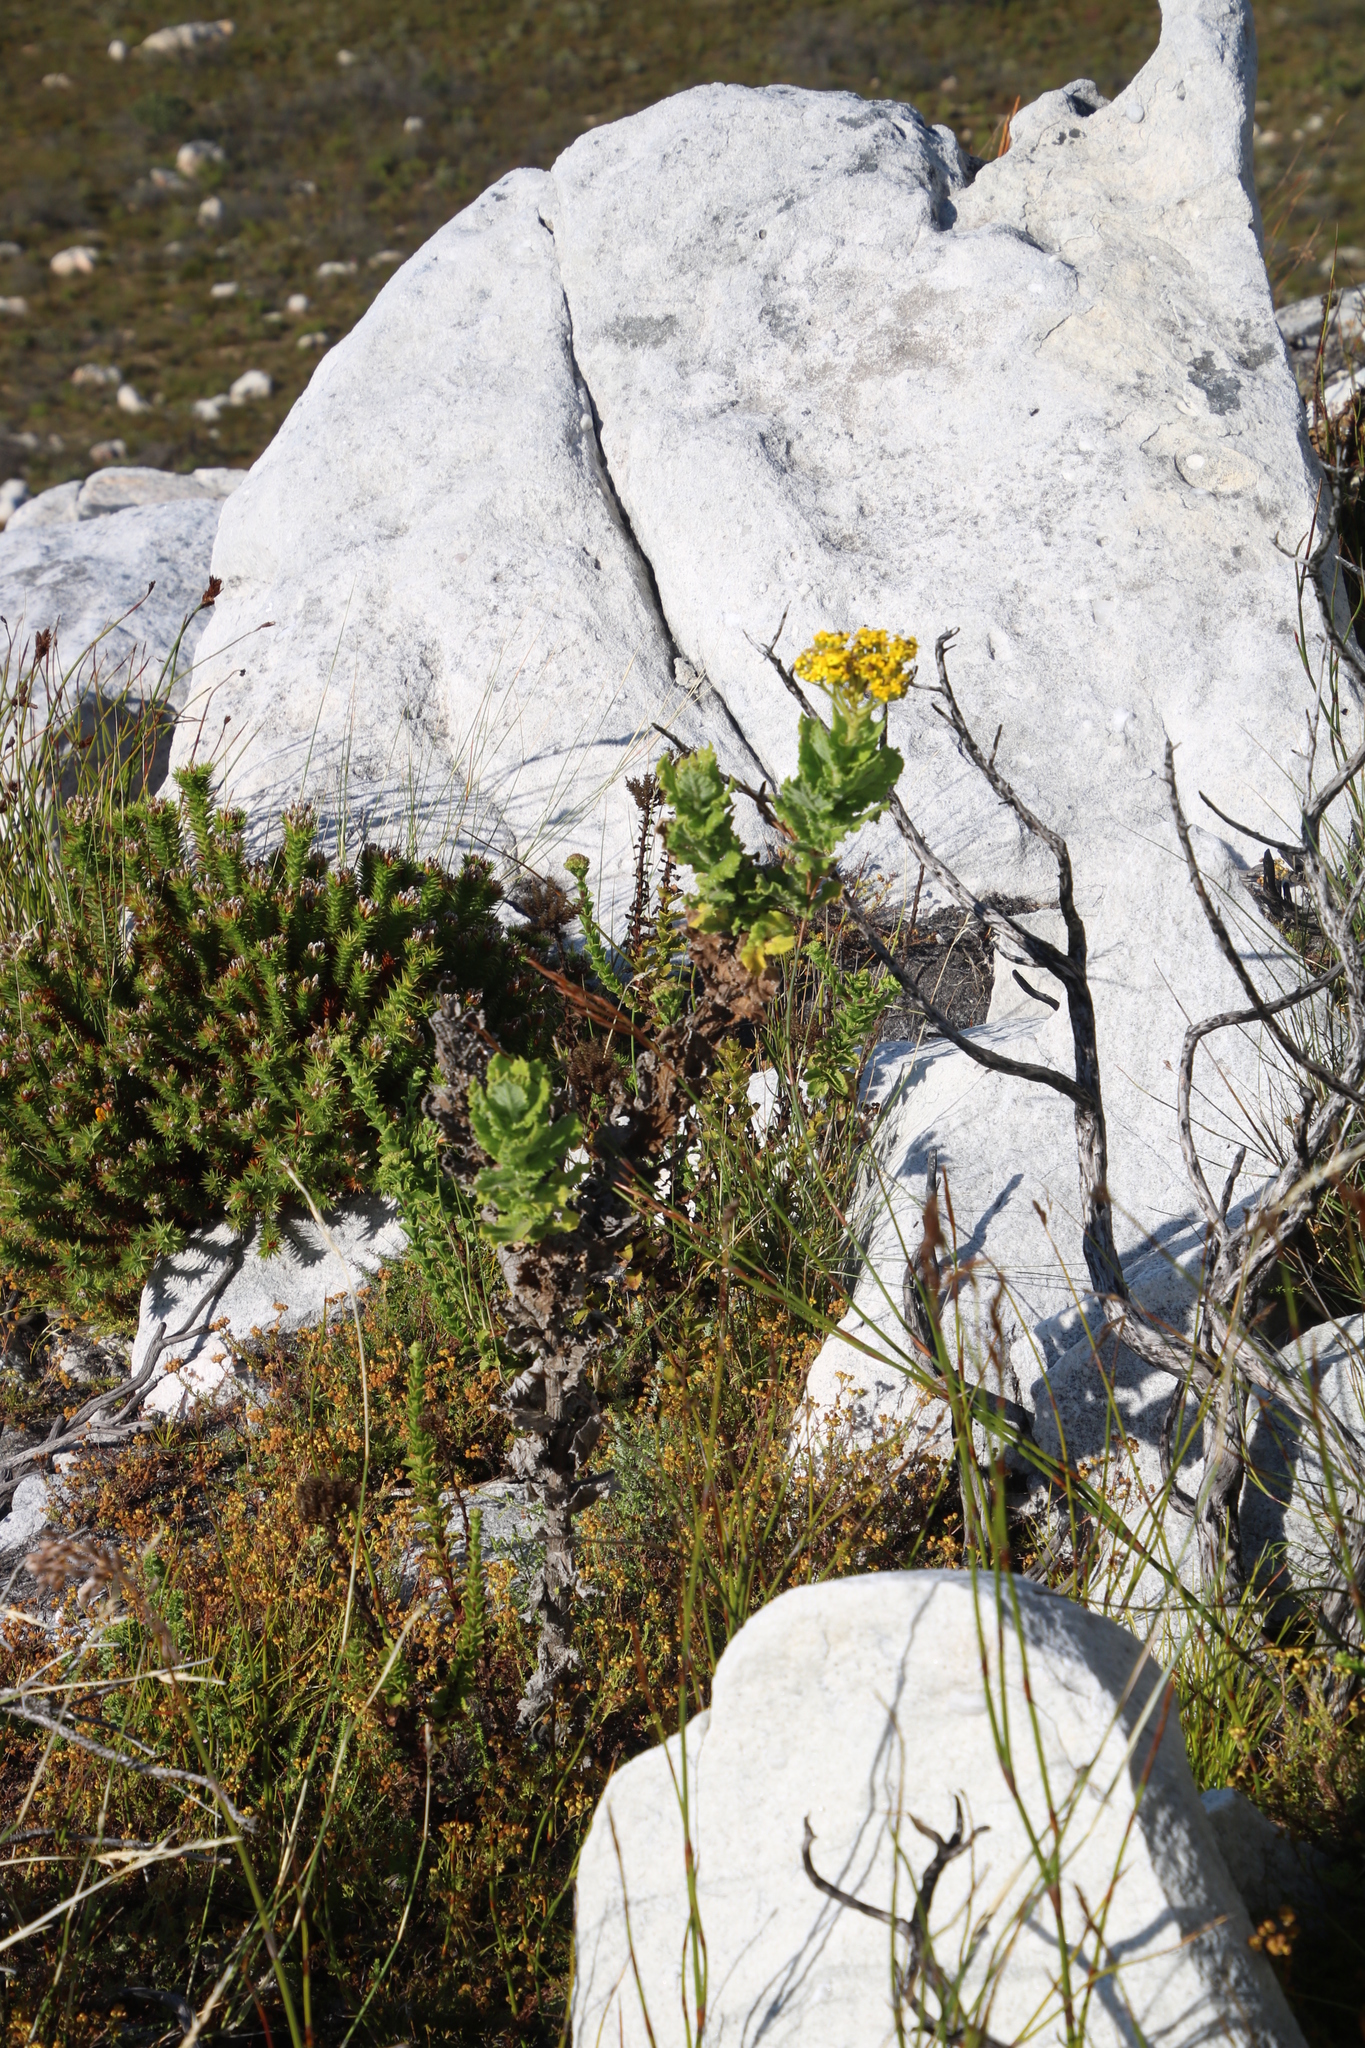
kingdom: Plantae
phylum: Tracheophyta
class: Magnoliopsida
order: Asterales
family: Asteraceae
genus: Senecio
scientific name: Senecio rigidus
